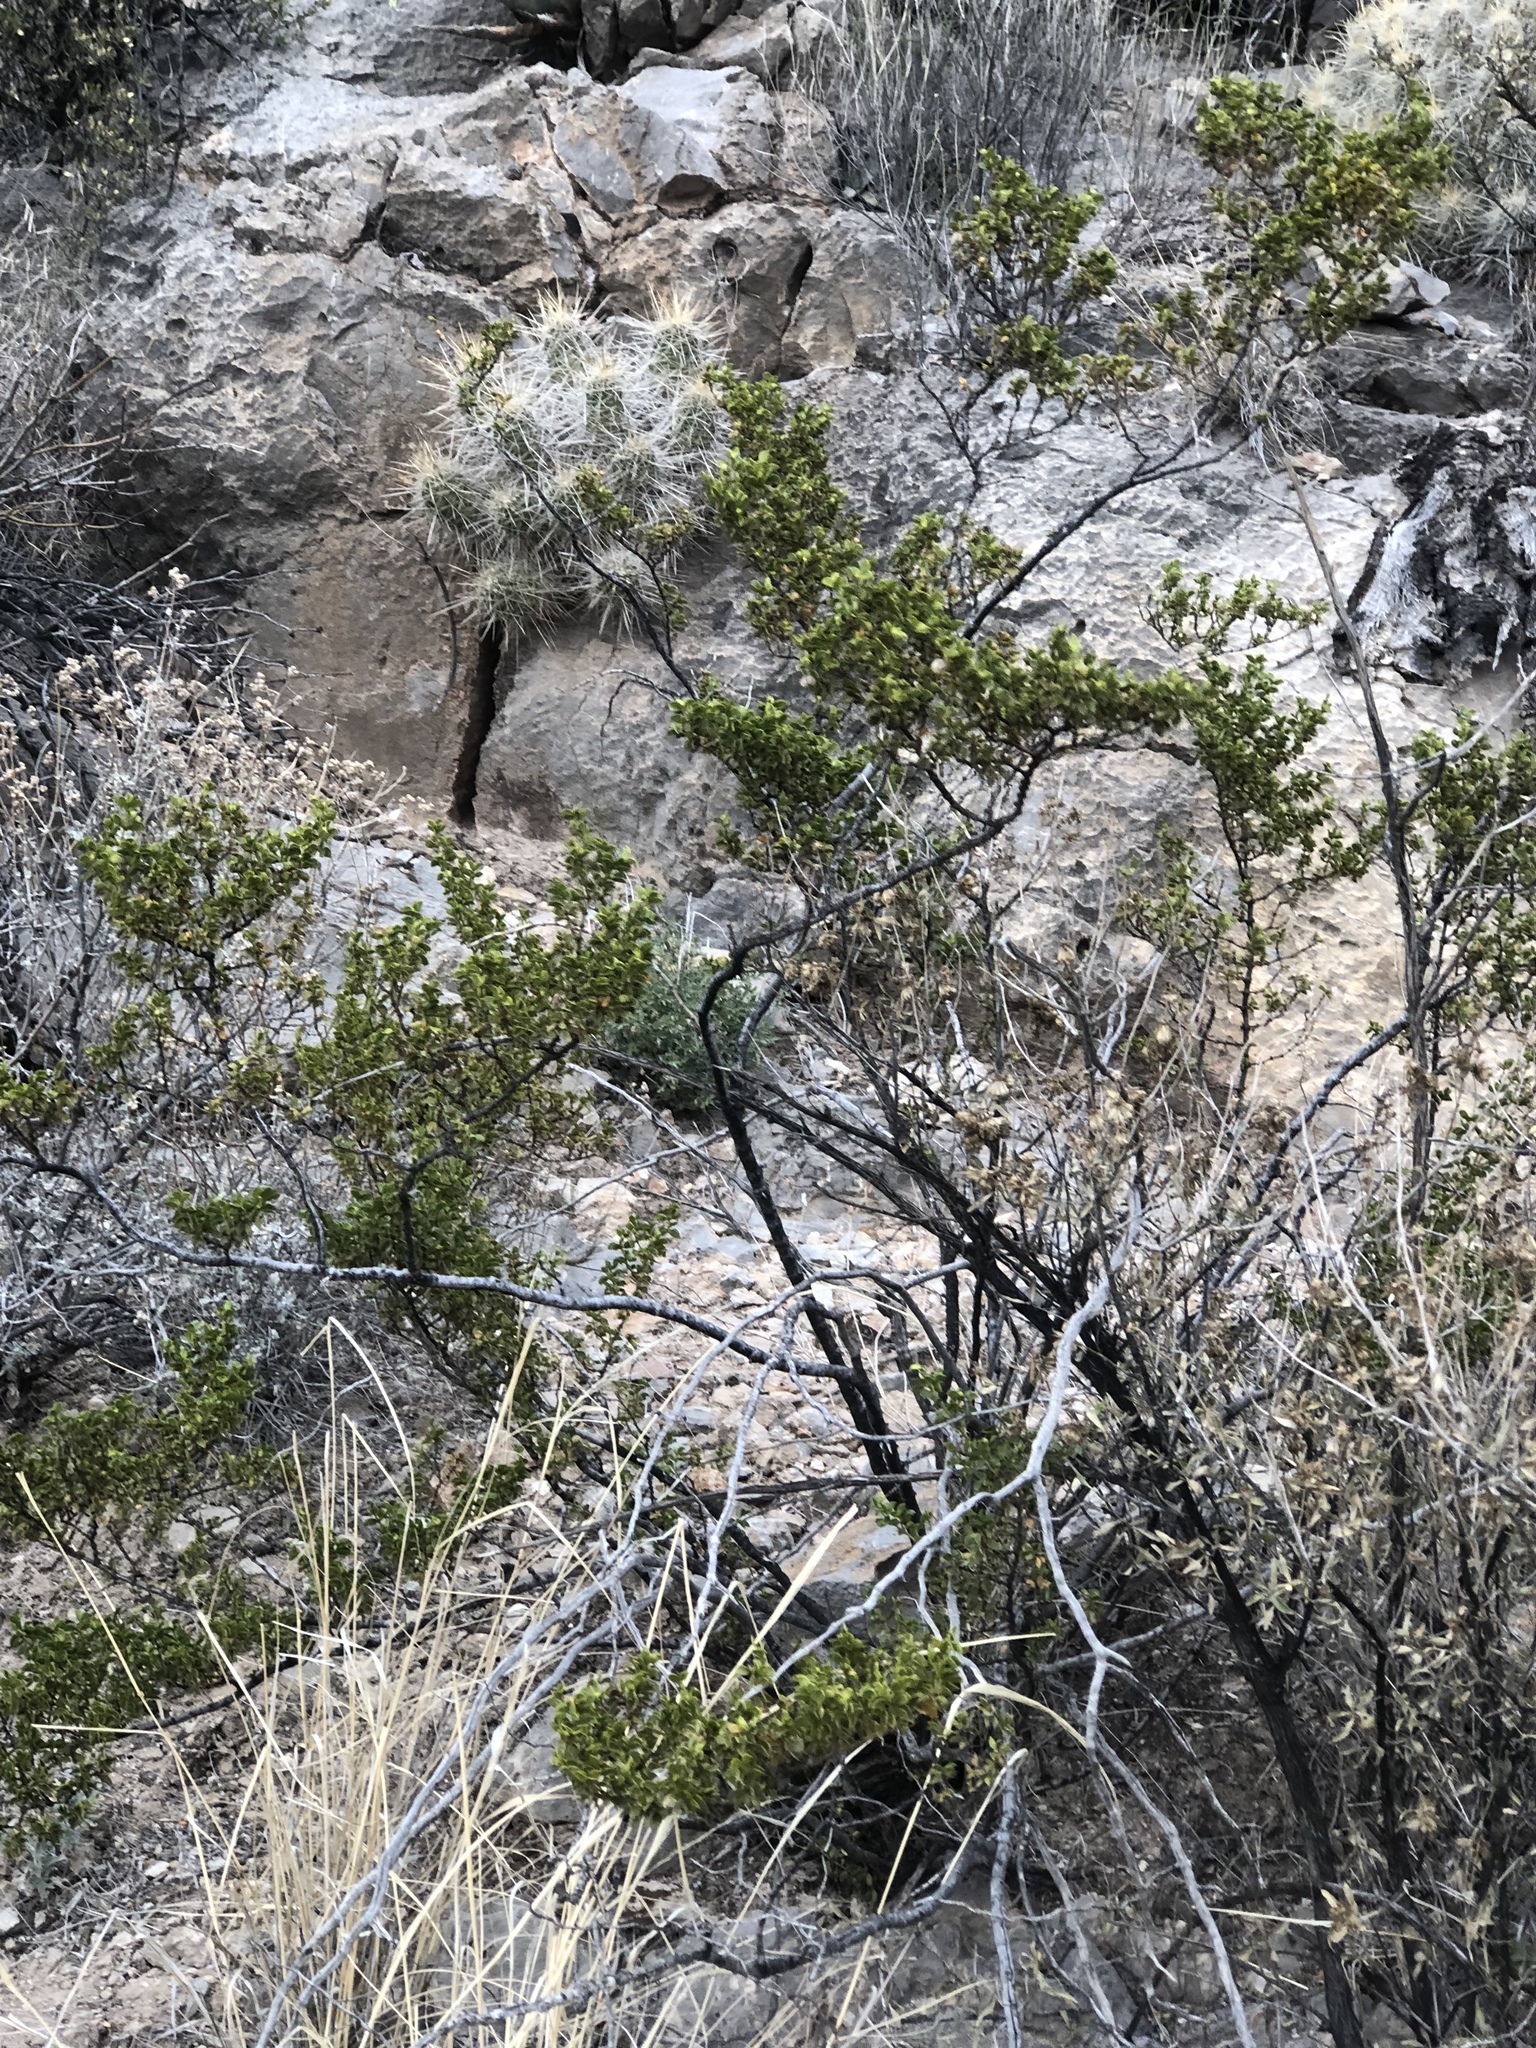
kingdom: Plantae
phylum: Tracheophyta
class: Magnoliopsida
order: Zygophyllales
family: Zygophyllaceae
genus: Larrea
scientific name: Larrea tridentata
